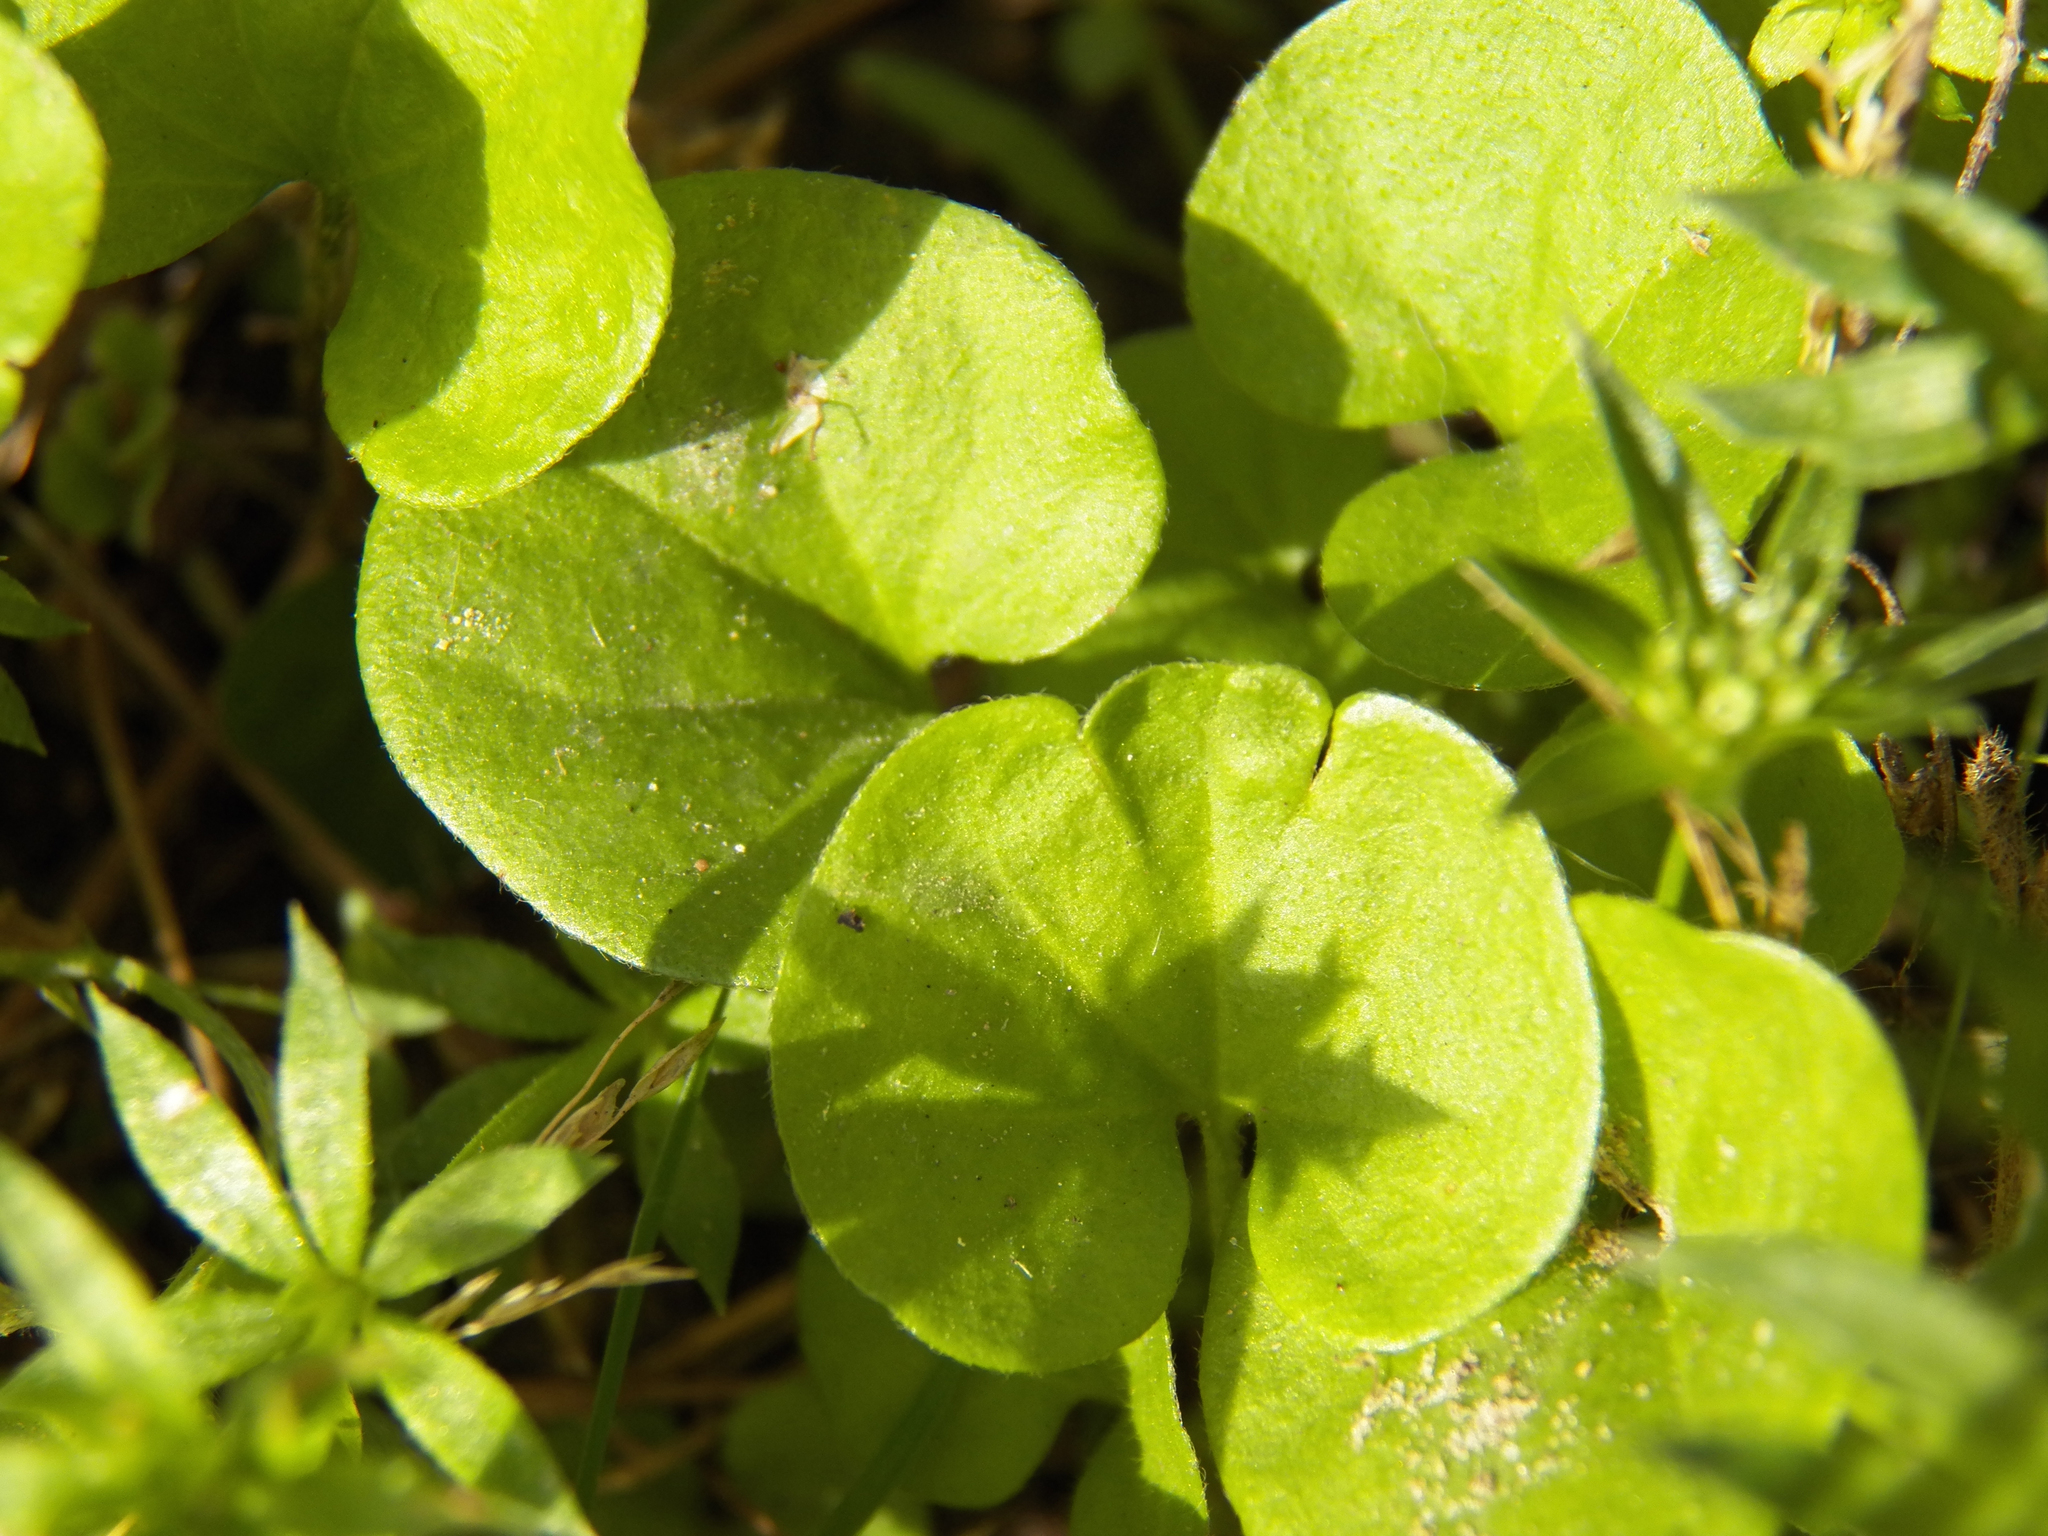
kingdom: Plantae
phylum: Tracheophyta
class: Magnoliopsida
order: Solanales
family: Convolvulaceae
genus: Dichondra
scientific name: Dichondra carolinensis
